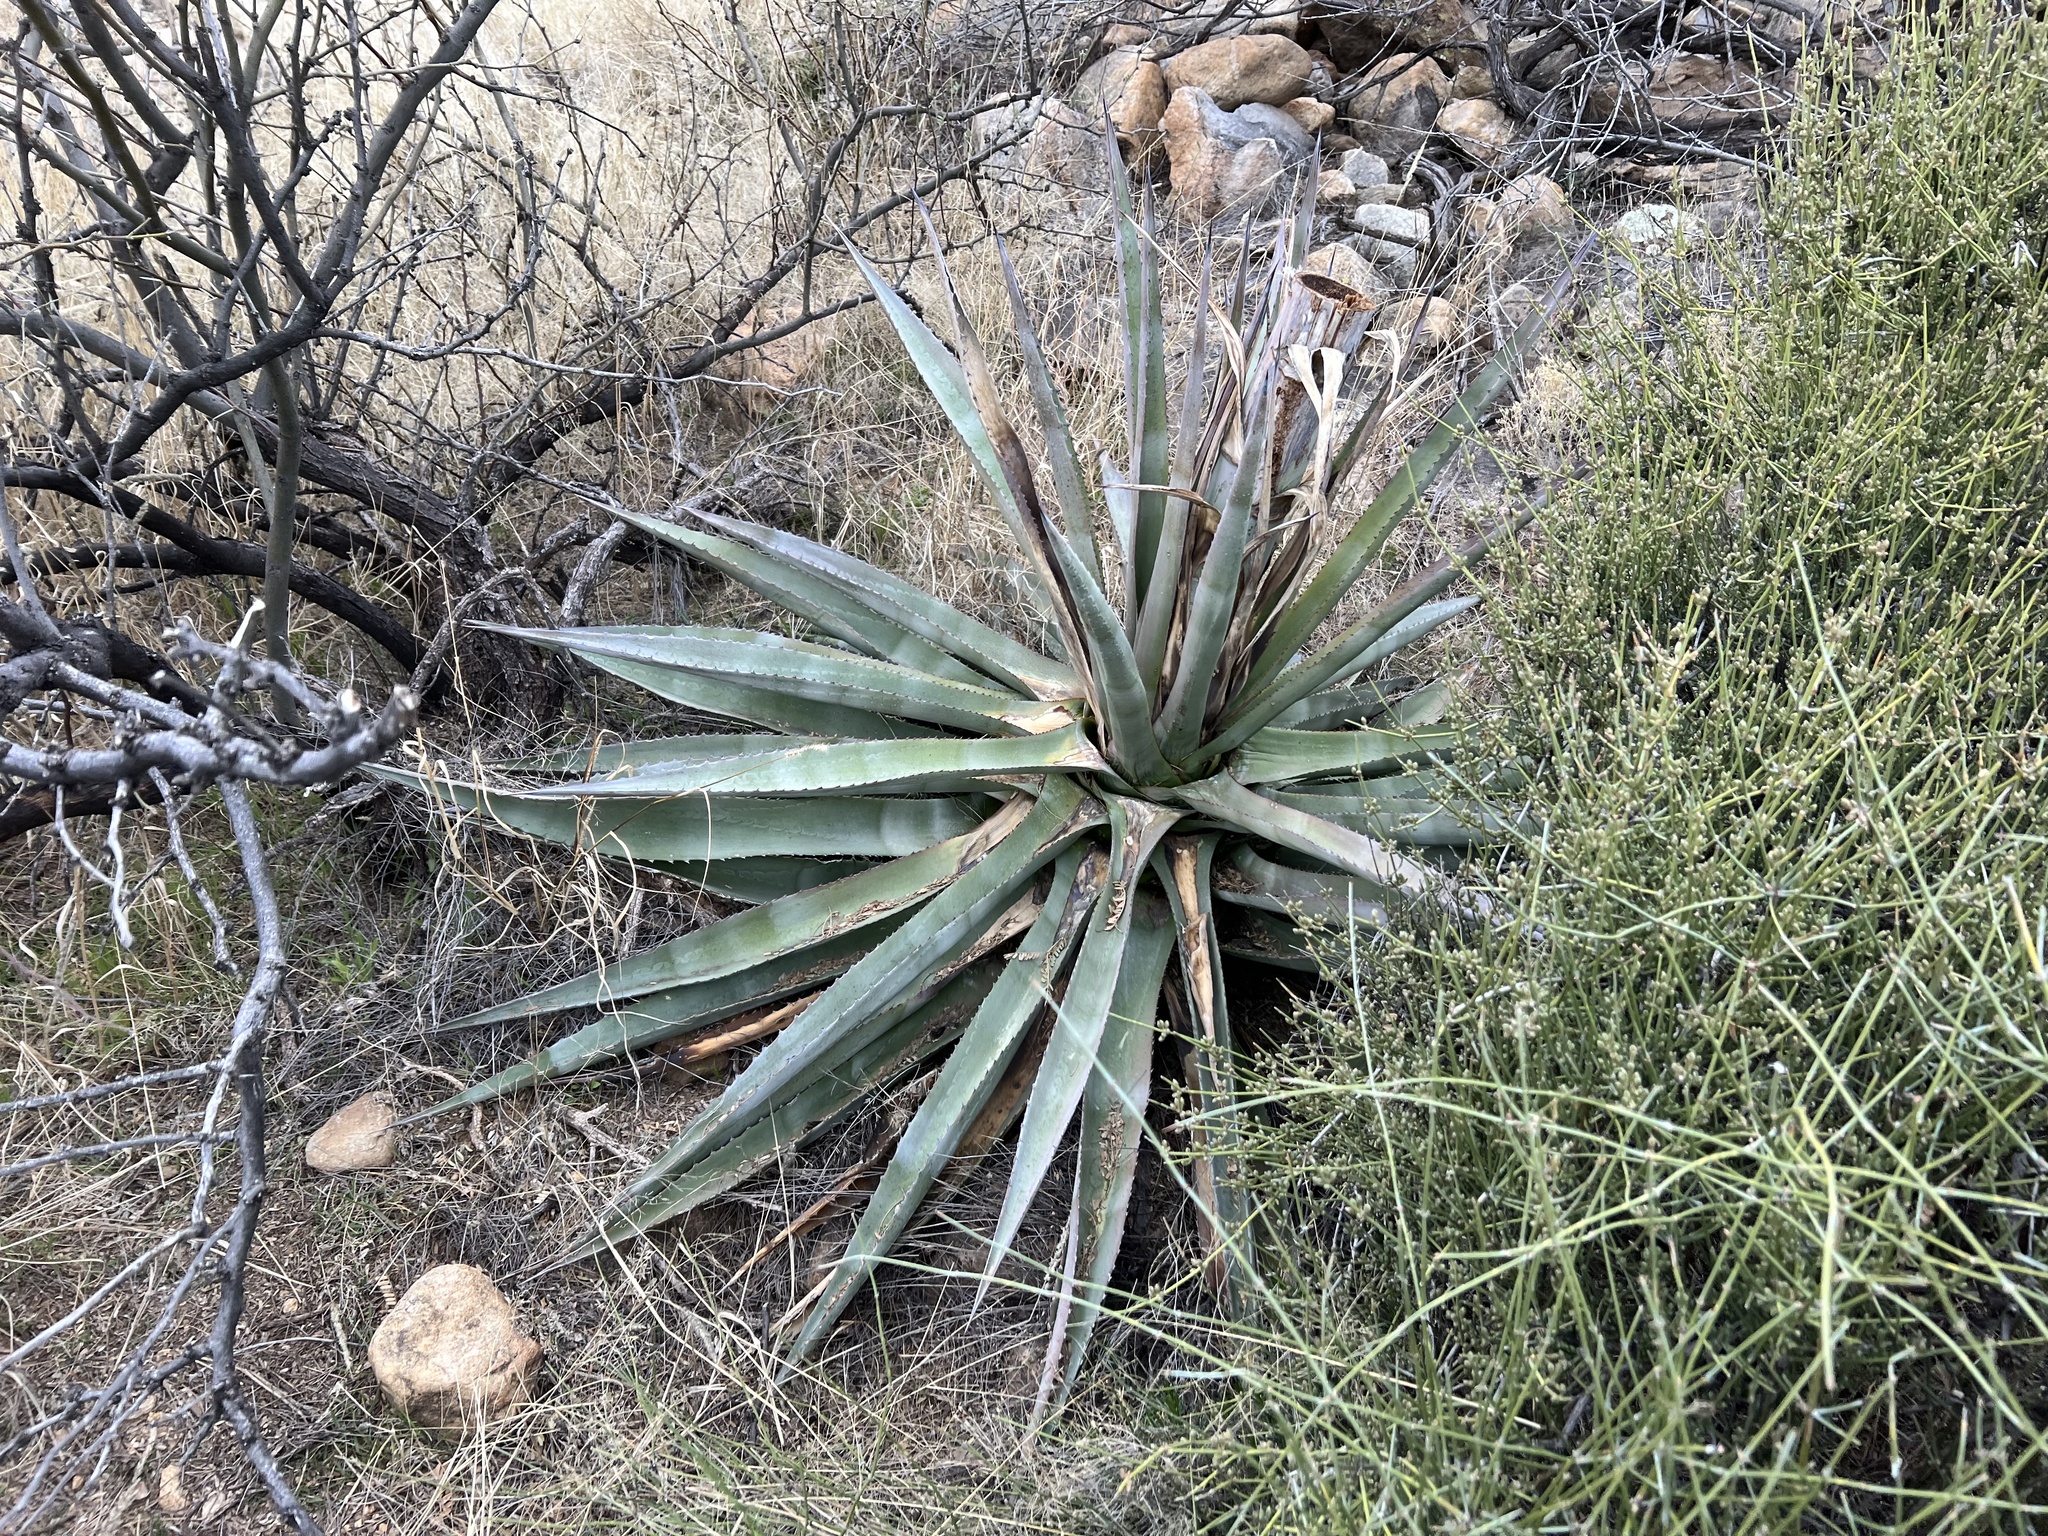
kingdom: Plantae
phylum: Tracheophyta
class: Liliopsida
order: Asparagales
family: Asparagaceae
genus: Agave
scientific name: Agave palmeri
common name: Palmer agave
